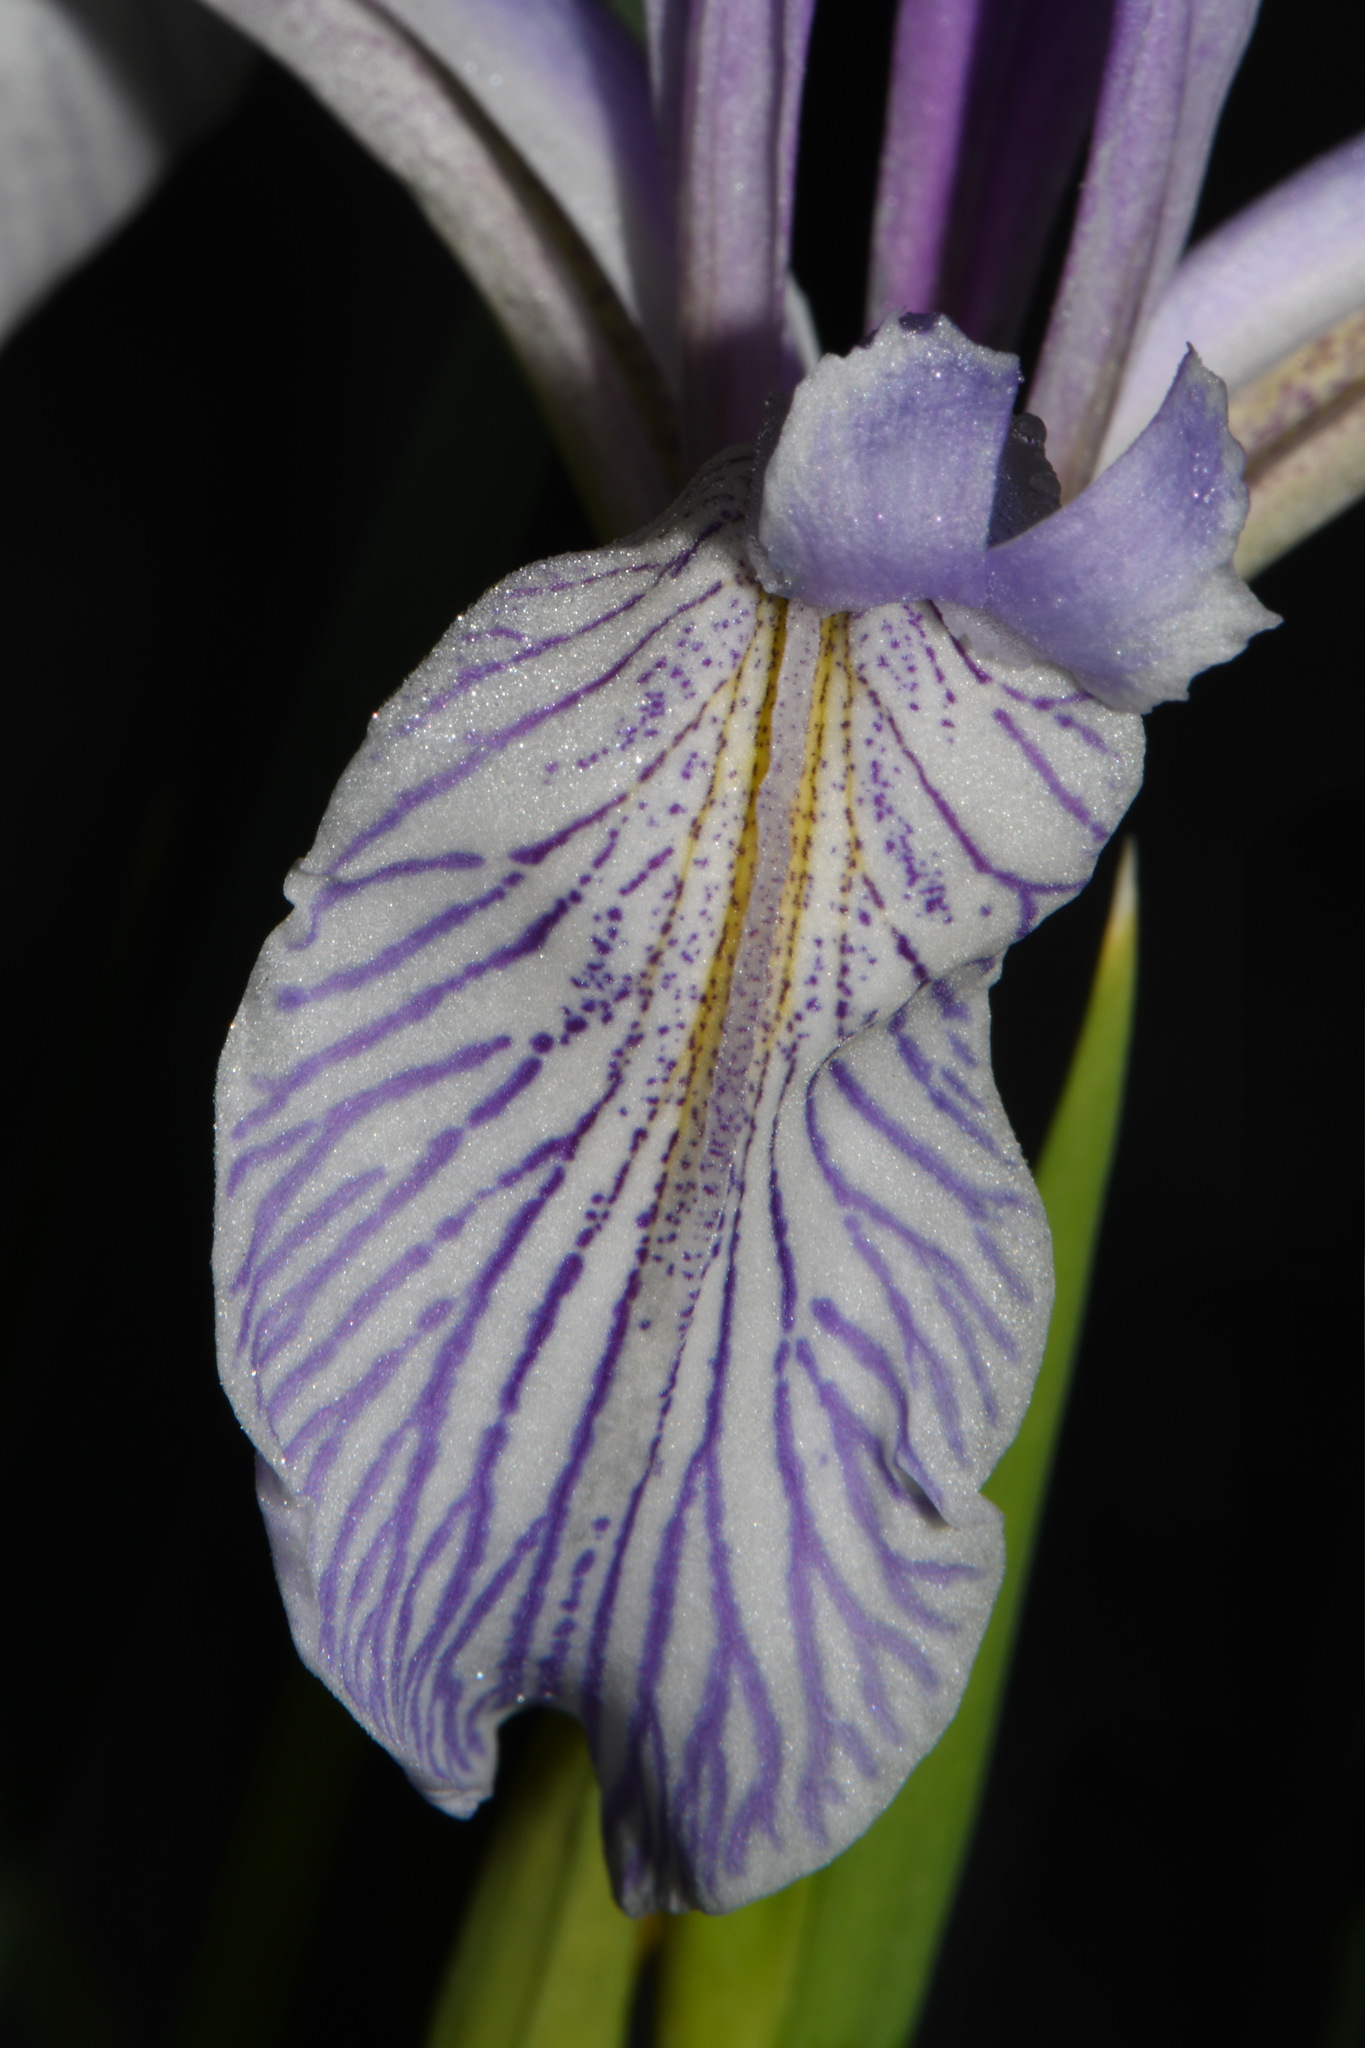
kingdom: Plantae
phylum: Tracheophyta
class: Liliopsida
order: Asparagales
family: Iridaceae
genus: Iris
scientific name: Iris missouriensis
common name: Rocky mountain iris
